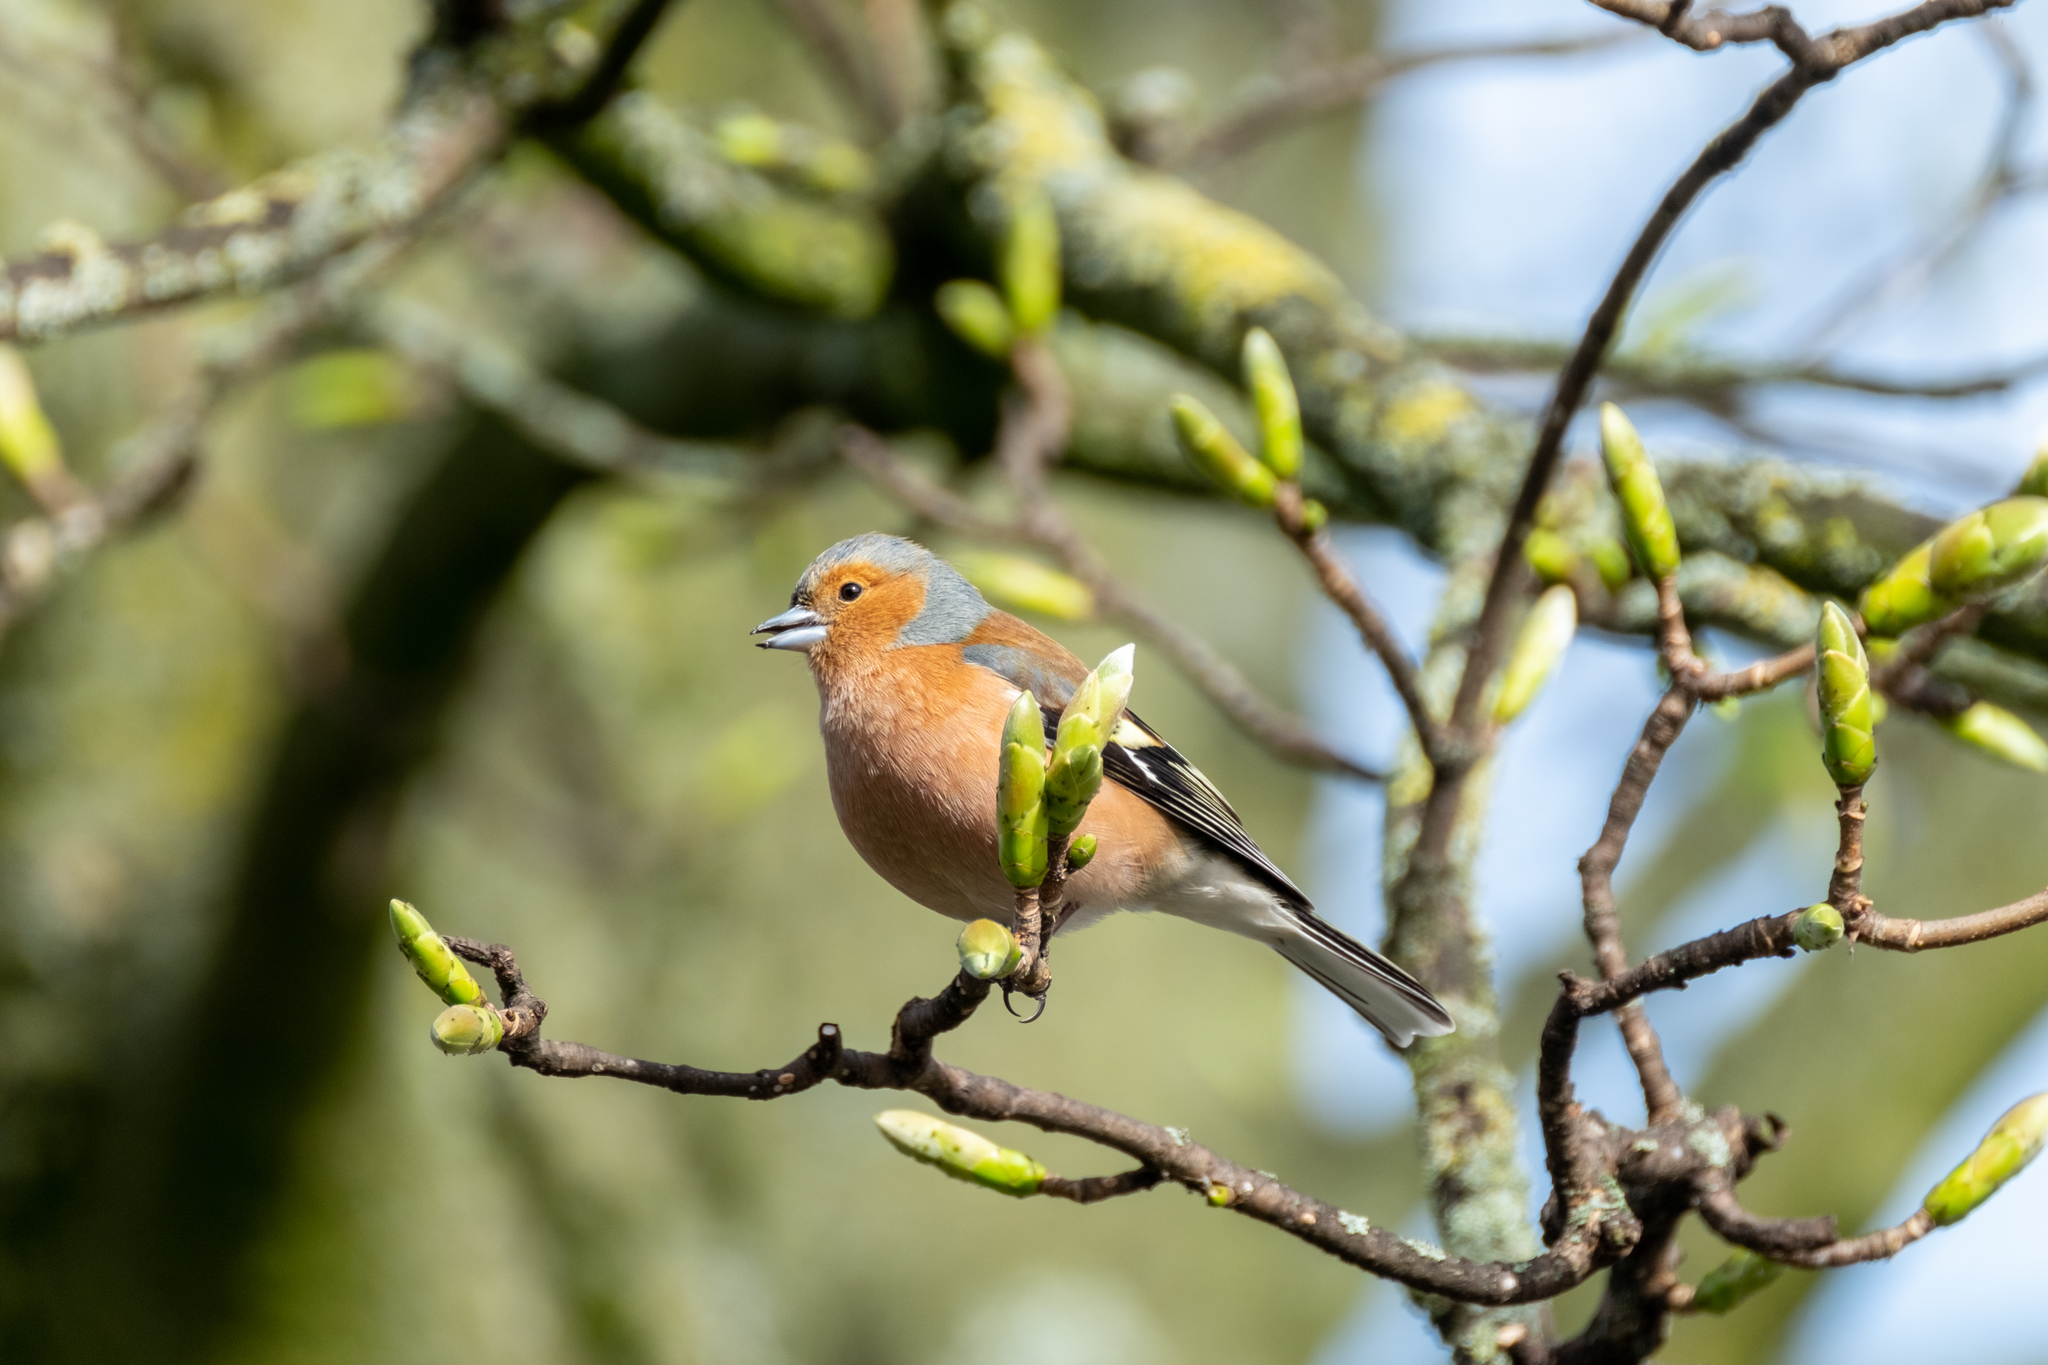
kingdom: Animalia
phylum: Chordata
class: Aves
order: Passeriformes
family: Fringillidae
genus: Fringilla
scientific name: Fringilla coelebs
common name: Common chaffinch
